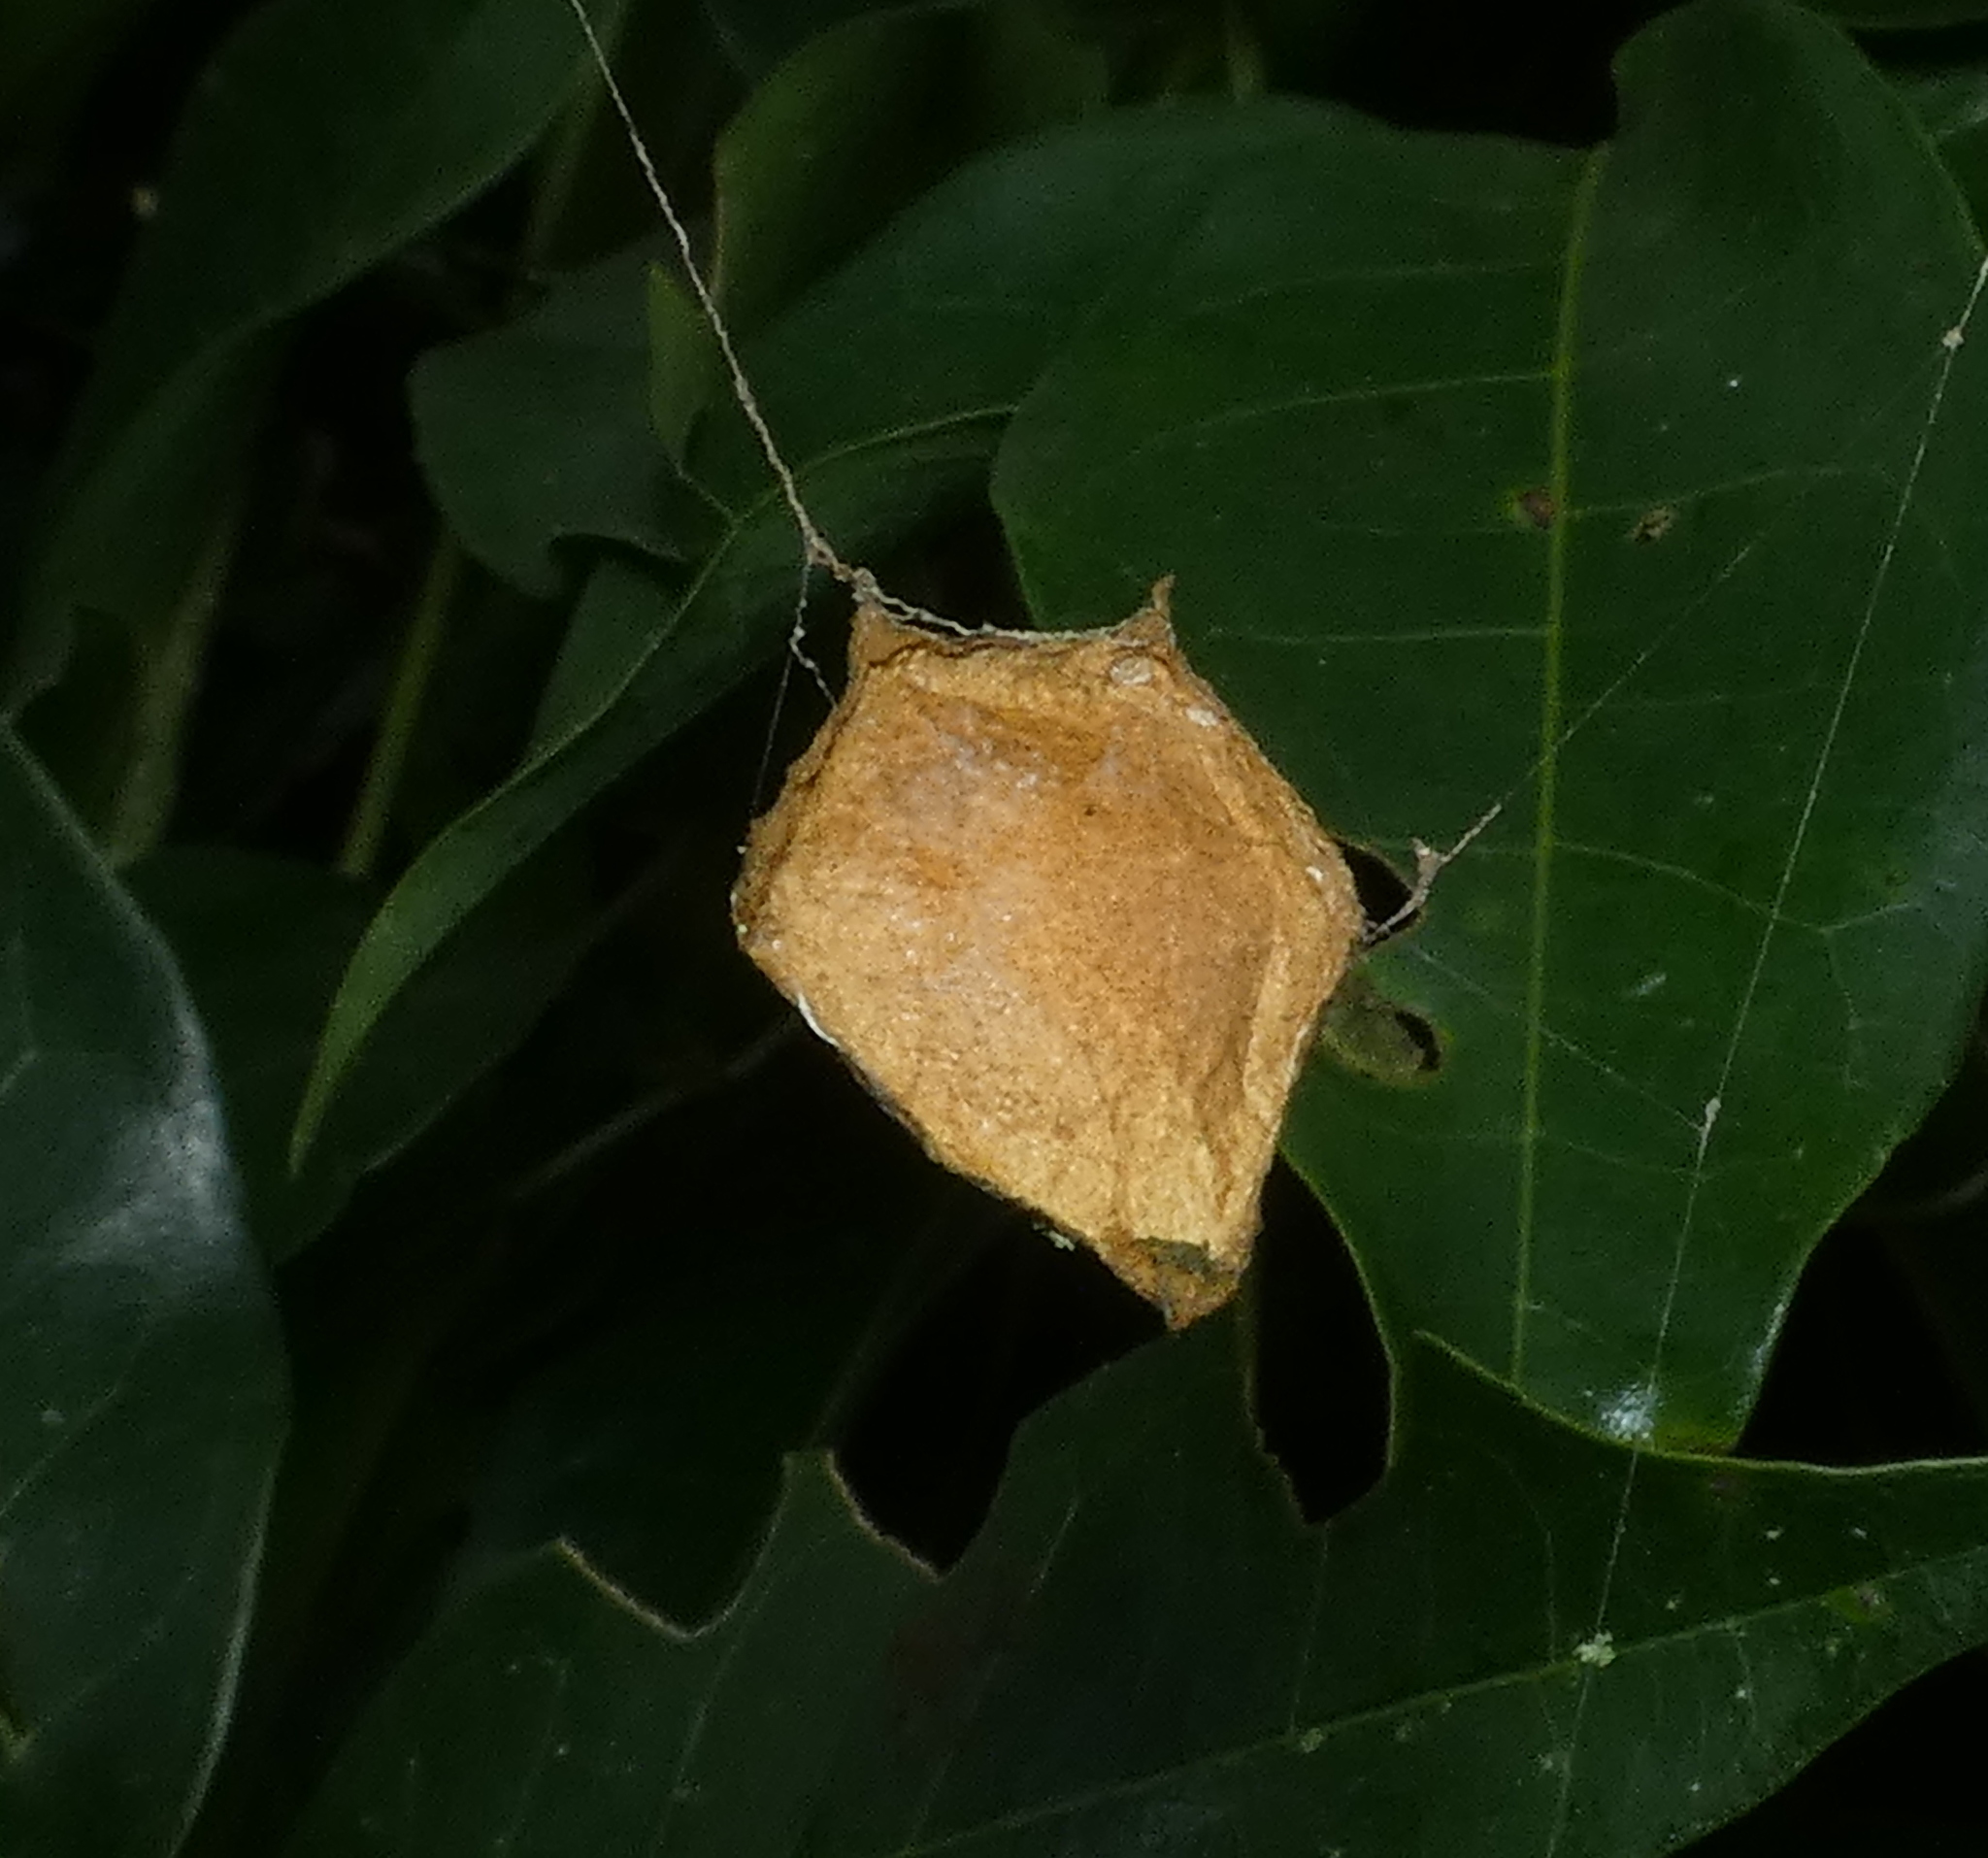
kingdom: Animalia
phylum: Arthropoda
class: Arachnida
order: Araneae
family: Araneidae
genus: Argiope
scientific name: Argiope argentata
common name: Orb weavers
